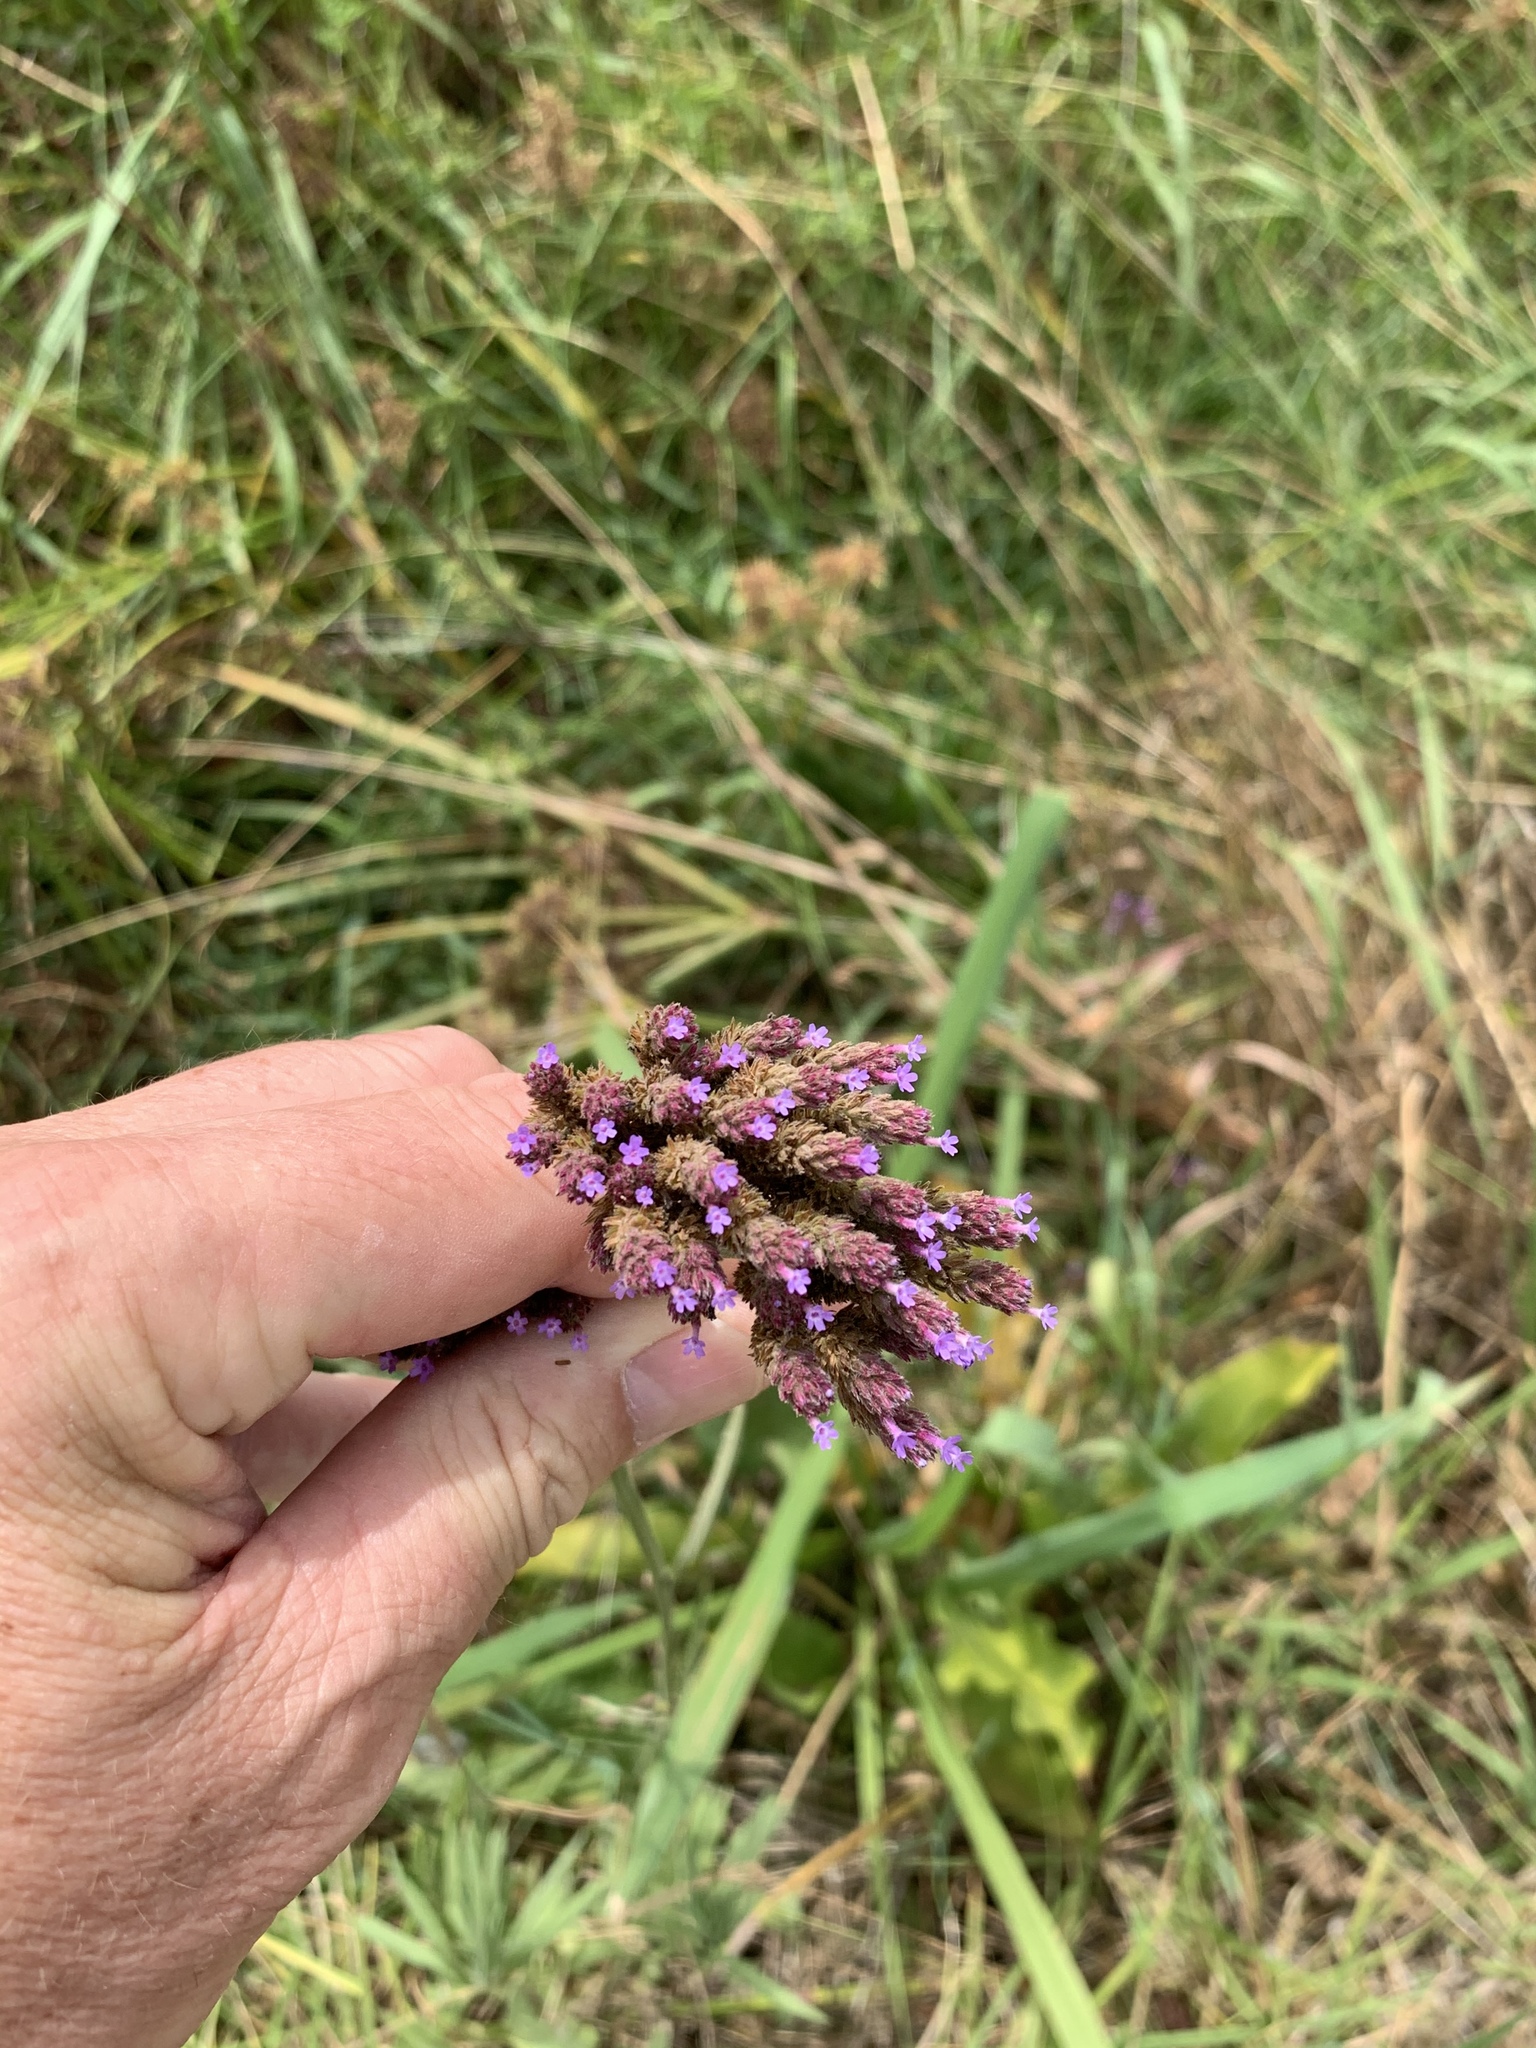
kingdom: Plantae
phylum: Tracheophyta
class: Magnoliopsida
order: Lamiales
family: Verbenaceae
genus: Verbena
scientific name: Verbena bonariensis
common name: Purpletop vervain
